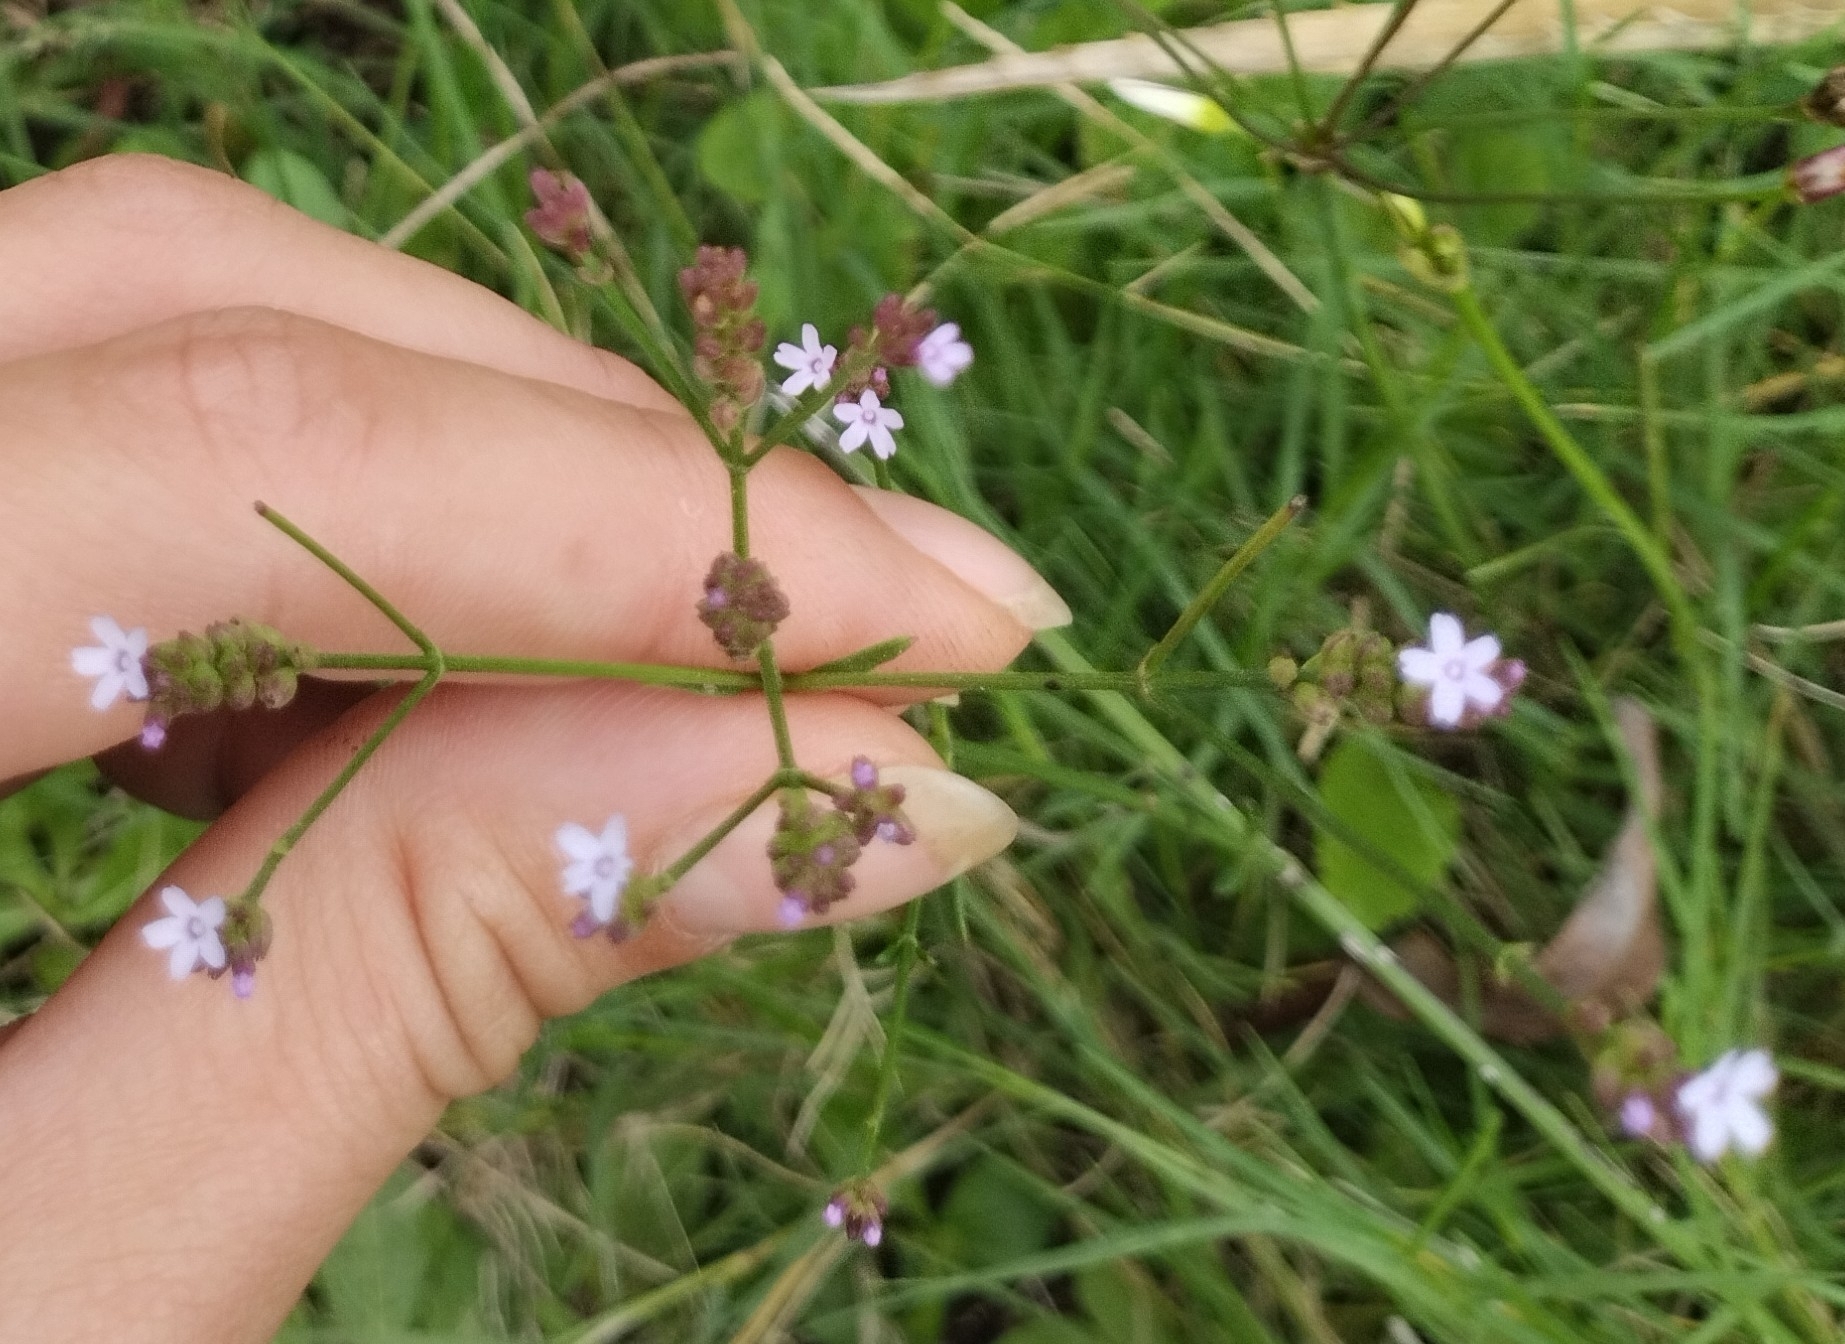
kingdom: Plantae
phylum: Tracheophyta
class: Magnoliopsida
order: Lamiales
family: Verbenaceae
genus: Verbena
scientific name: Verbena montevidensis
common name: Uruguayan vervain
